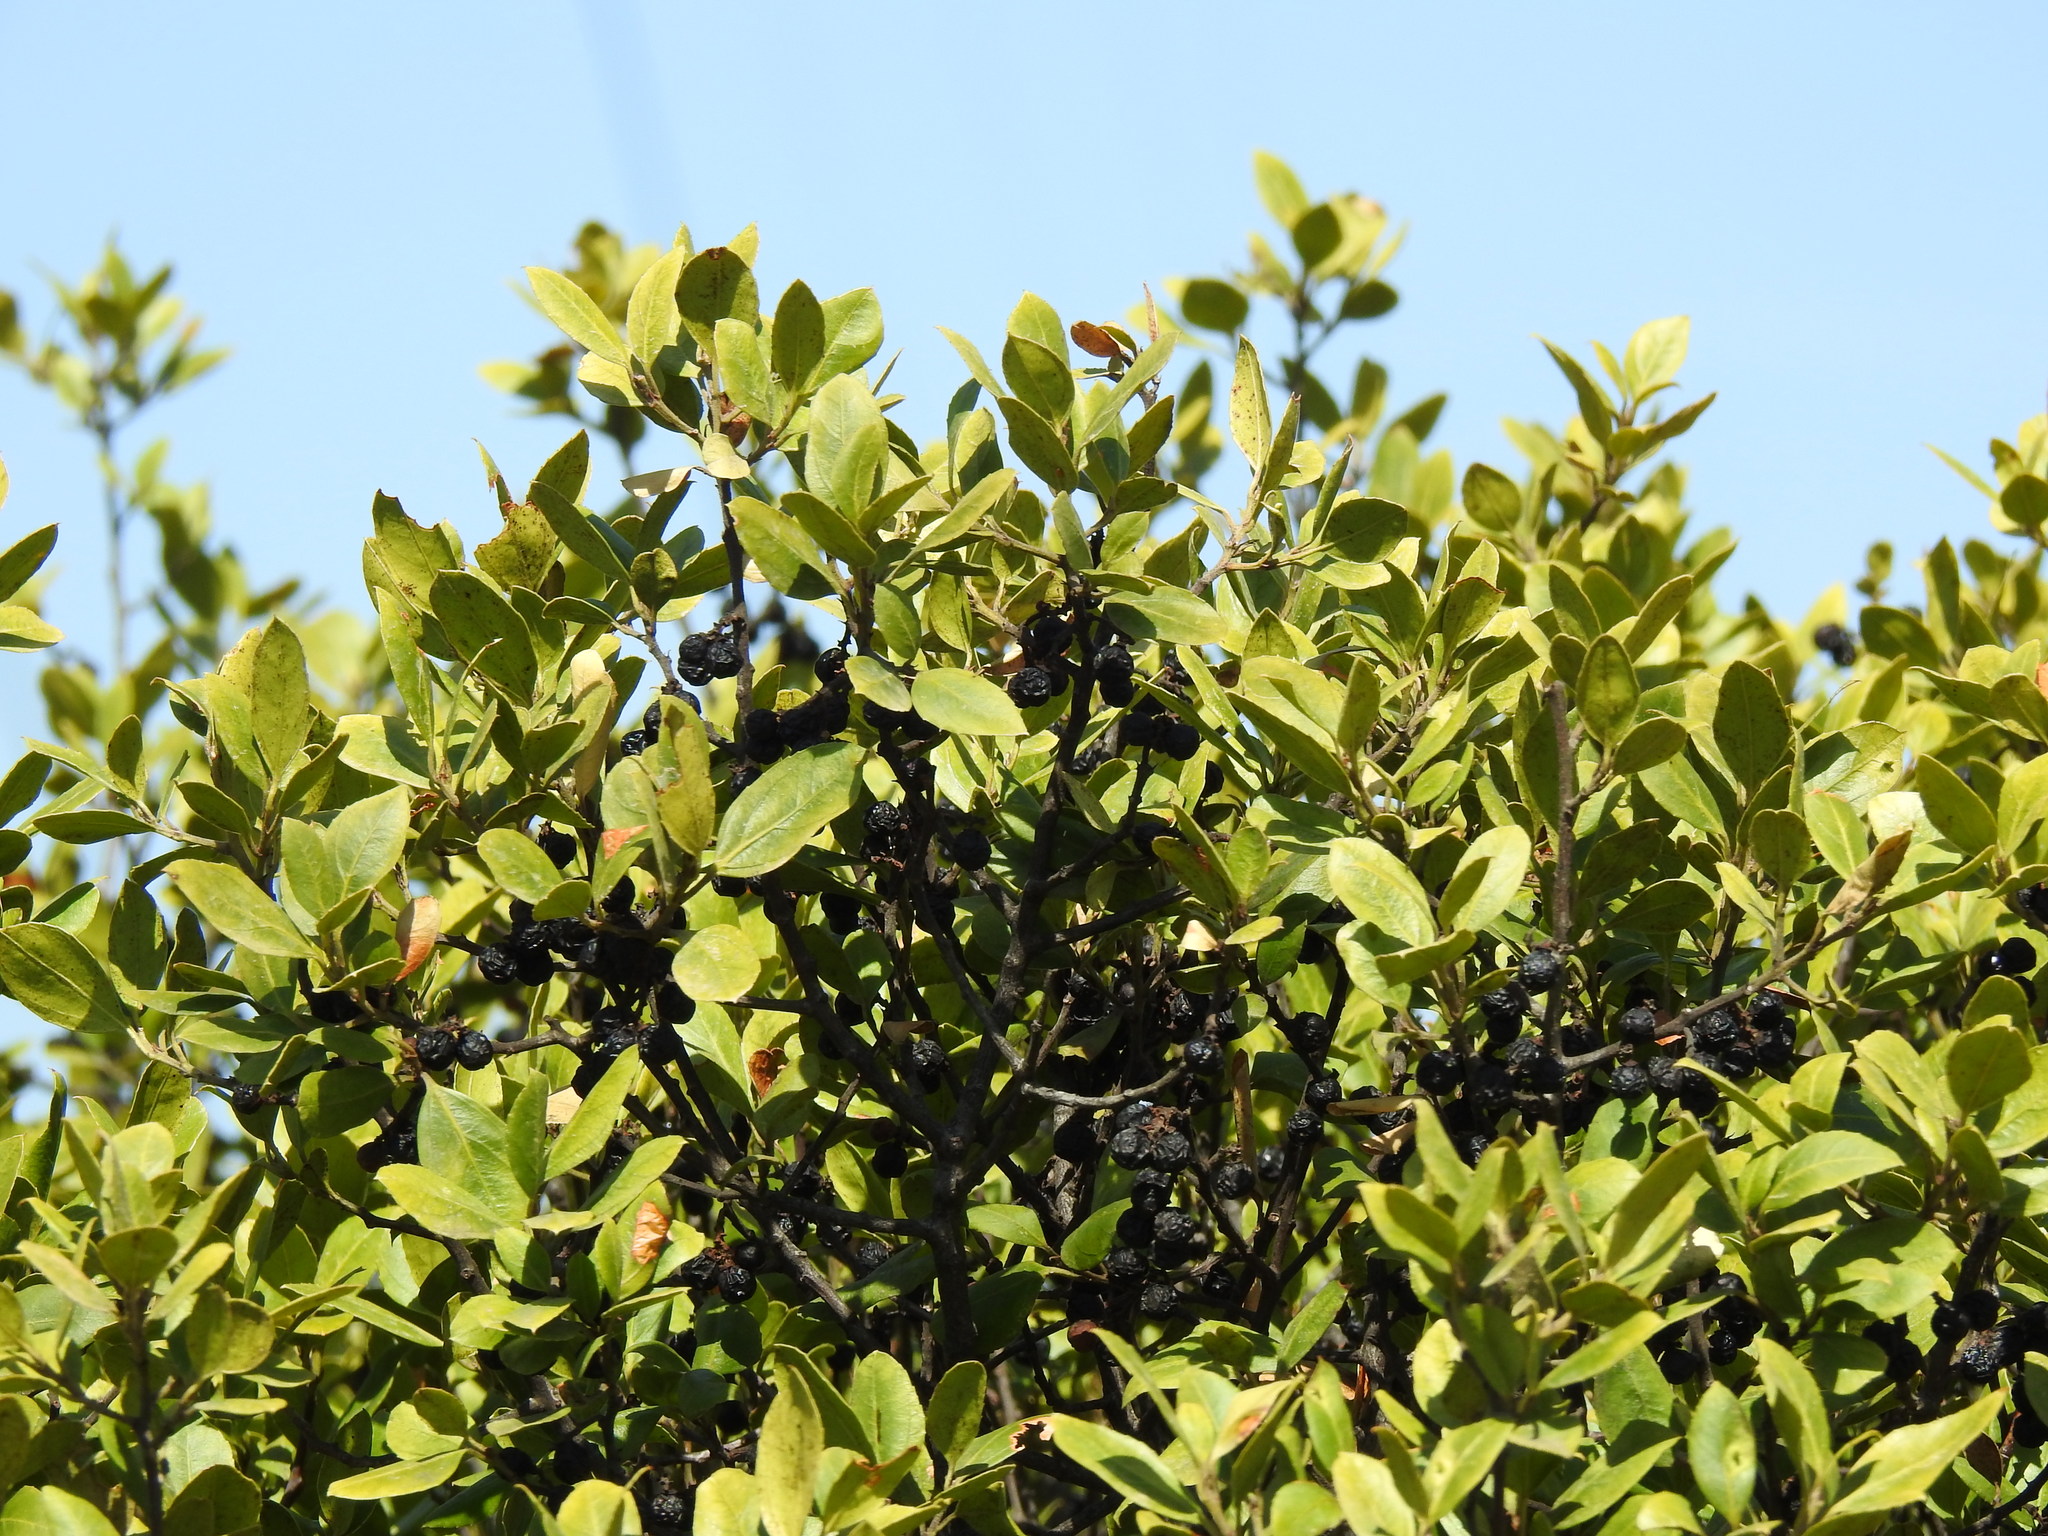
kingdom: Plantae
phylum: Tracheophyta
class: Magnoliopsida
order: Rosales
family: Rhamnaceae
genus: Rhamnus
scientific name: Rhamnus alaternus
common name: Mediterranean buckthorn
